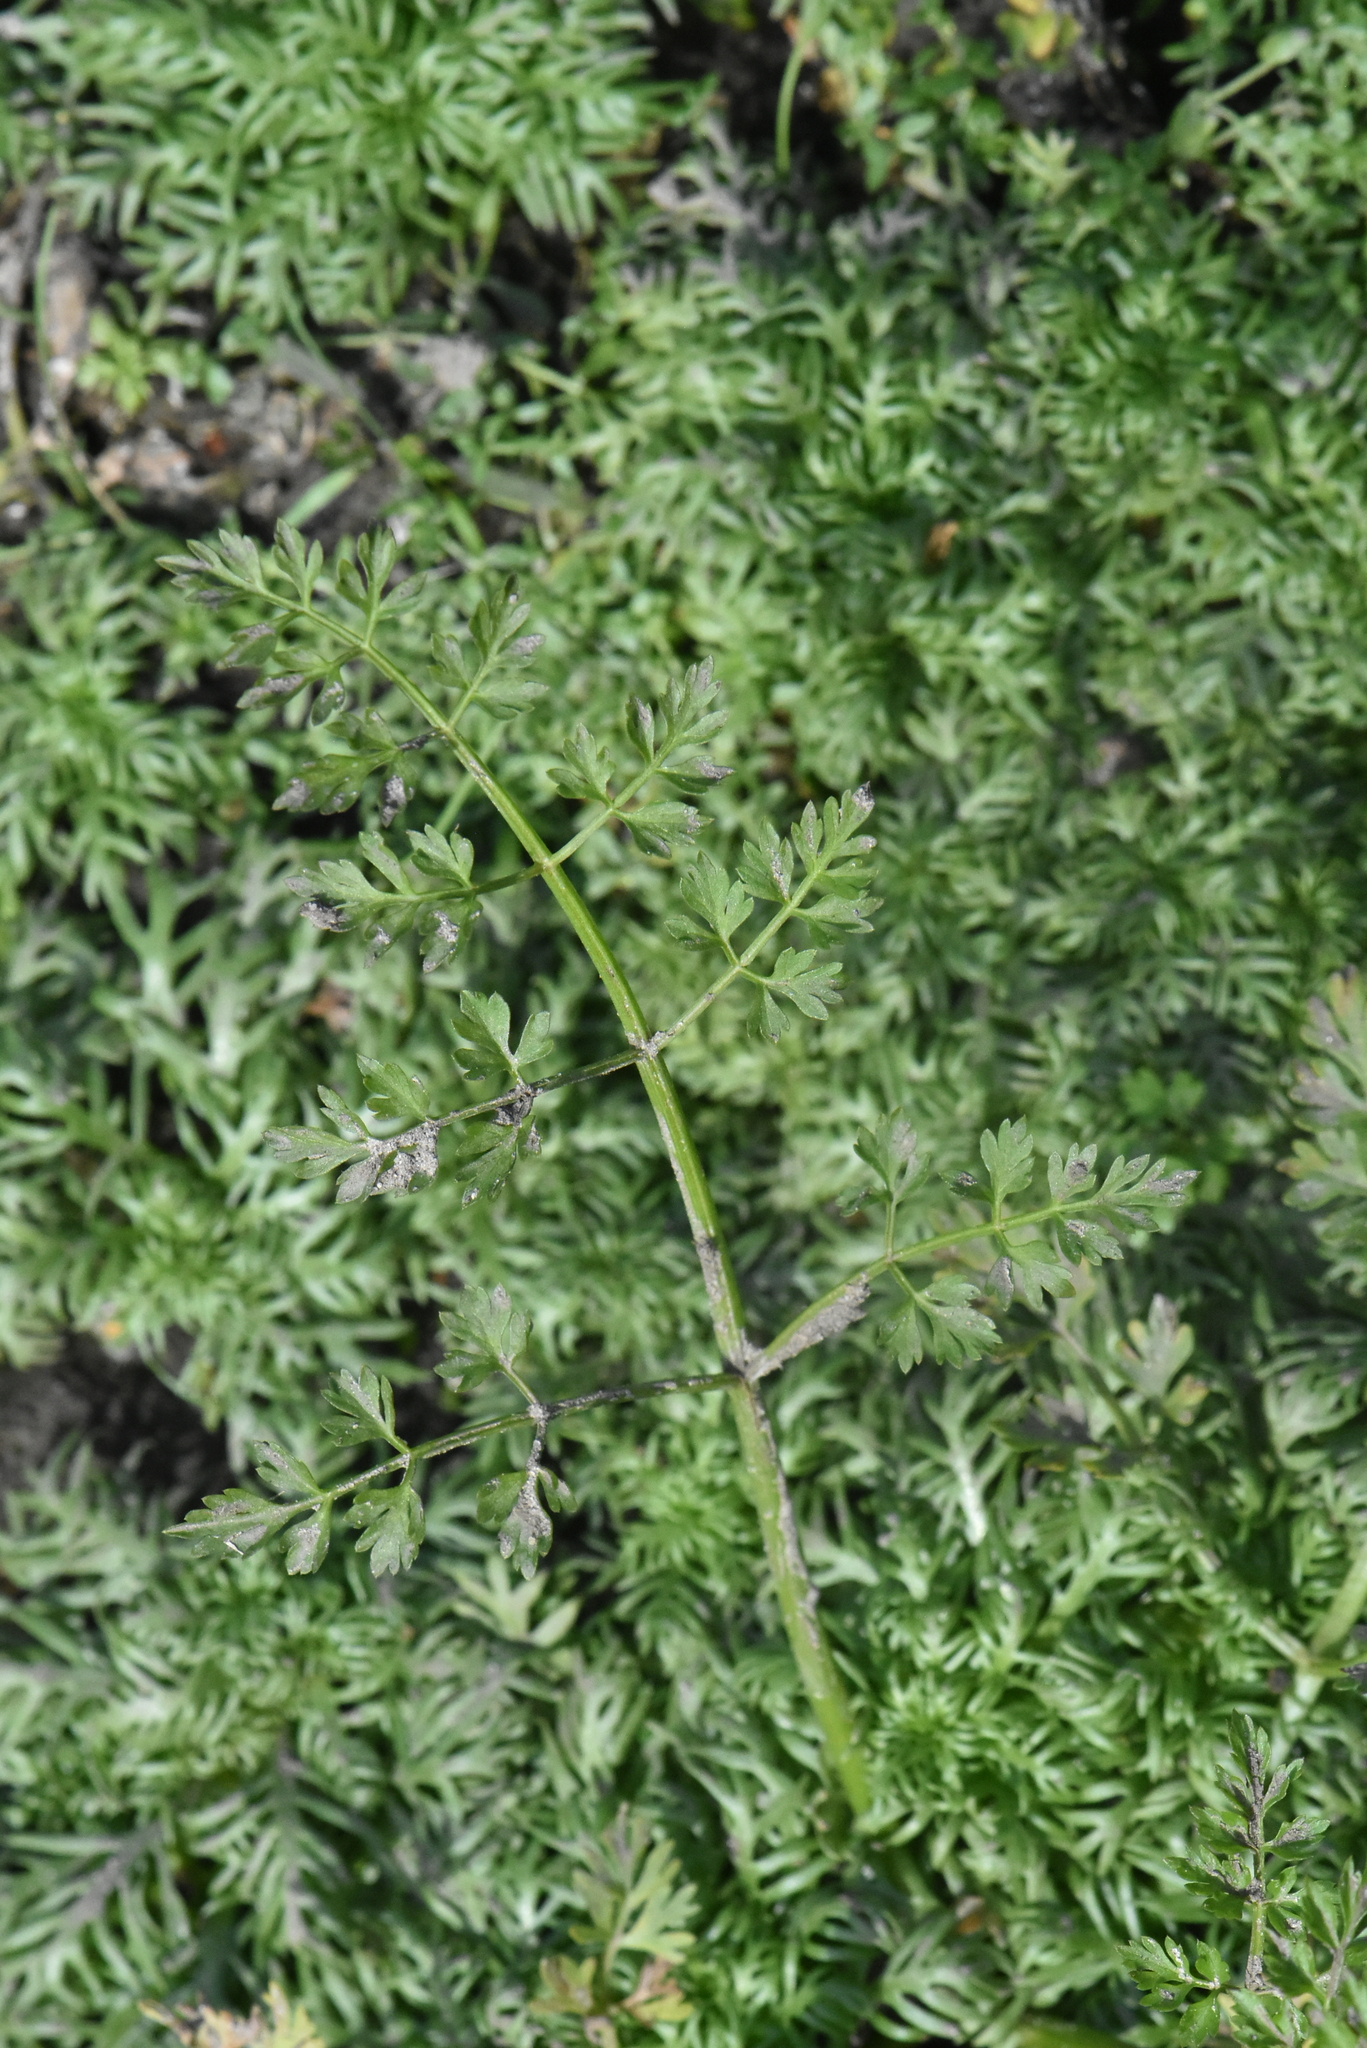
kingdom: Plantae
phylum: Tracheophyta
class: Magnoliopsida
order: Apiales
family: Apiaceae
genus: Oenanthe
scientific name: Oenanthe aquatica
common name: Fine-leaved water-dropwort
